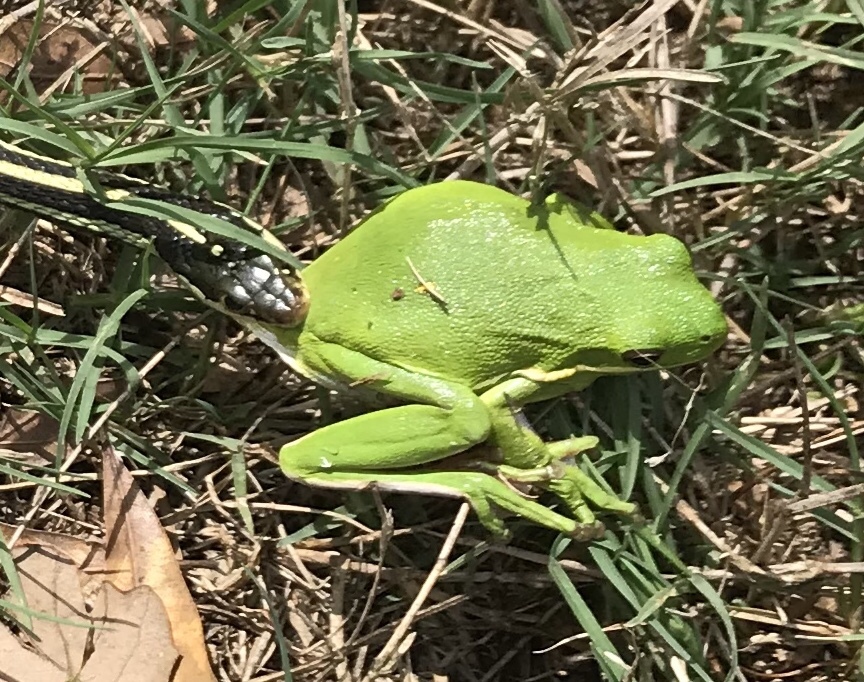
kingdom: Animalia
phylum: Chordata
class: Amphibia
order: Anura
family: Hylidae
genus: Dryophytes
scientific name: Dryophytes cinereus
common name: Green treefrog
